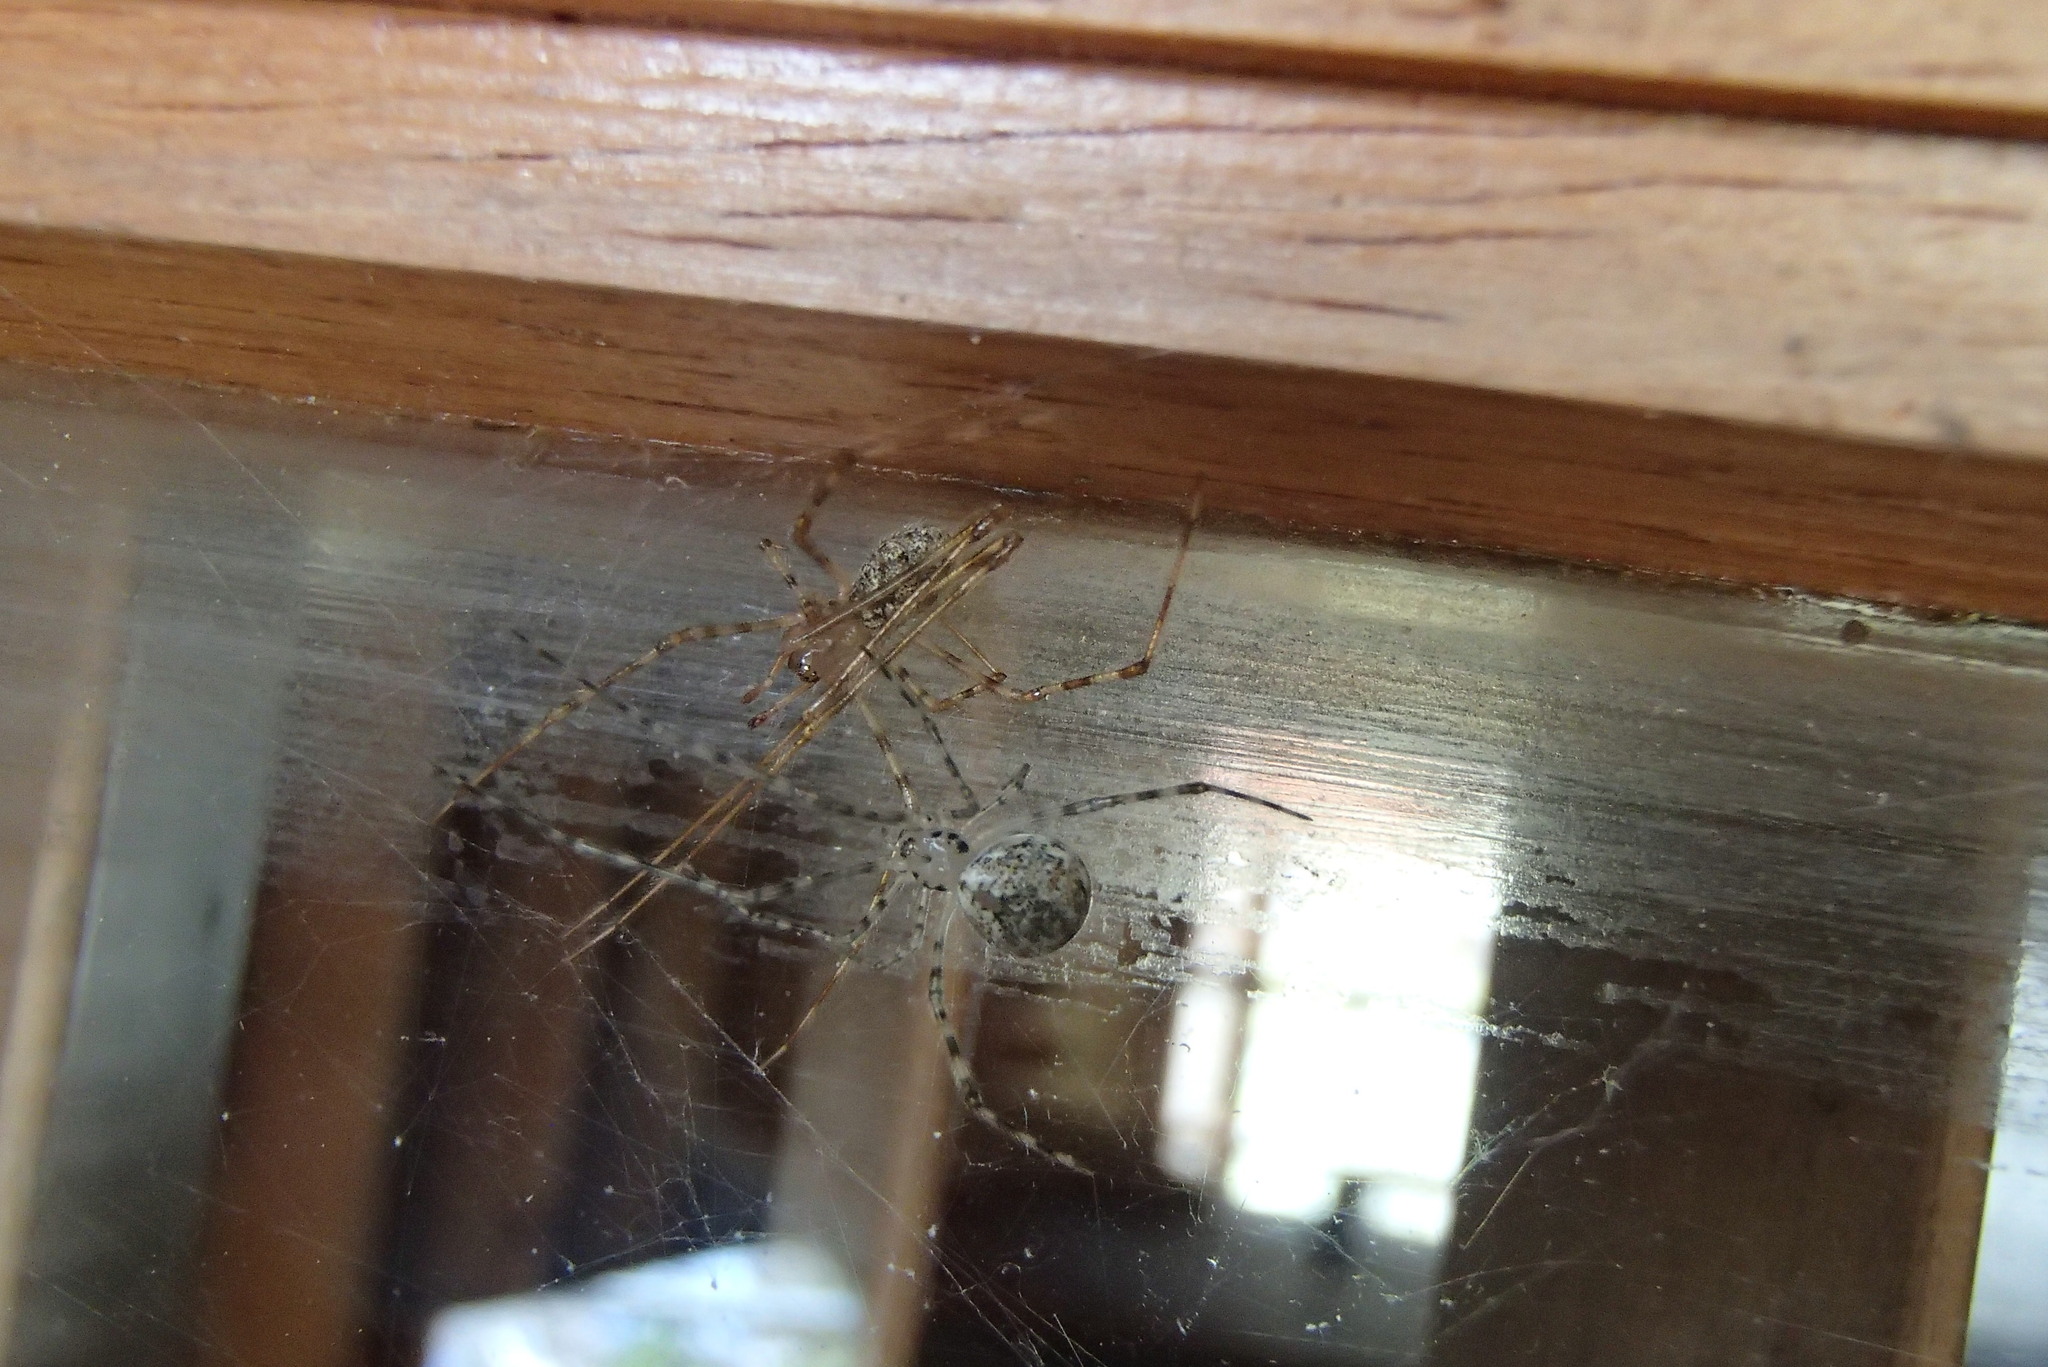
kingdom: Animalia
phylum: Arthropoda
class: Arachnida
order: Araneae
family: Theridiidae
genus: Cryptachaea
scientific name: Cryptachaea gigantipes
